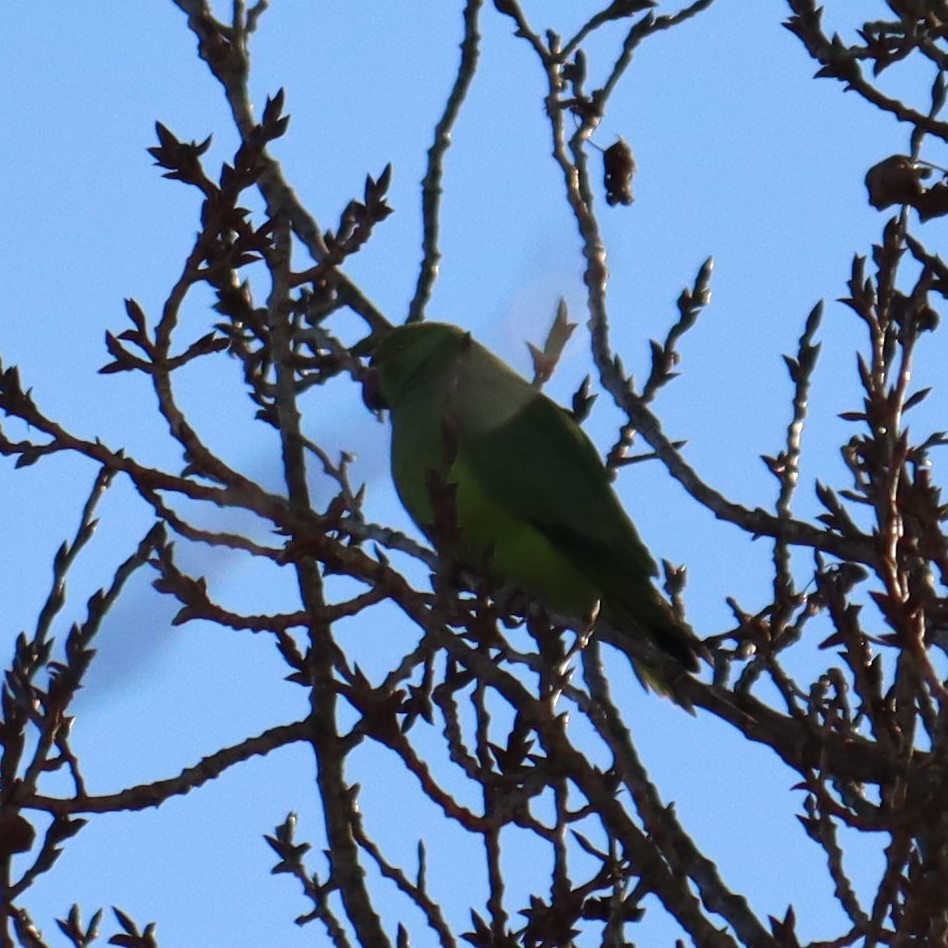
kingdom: Animalia
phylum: Chordata
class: Aves
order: Psittaciformes
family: Psittacidae
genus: Psittacula
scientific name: Psittacula krameri
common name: Rose-ringed parakeet
